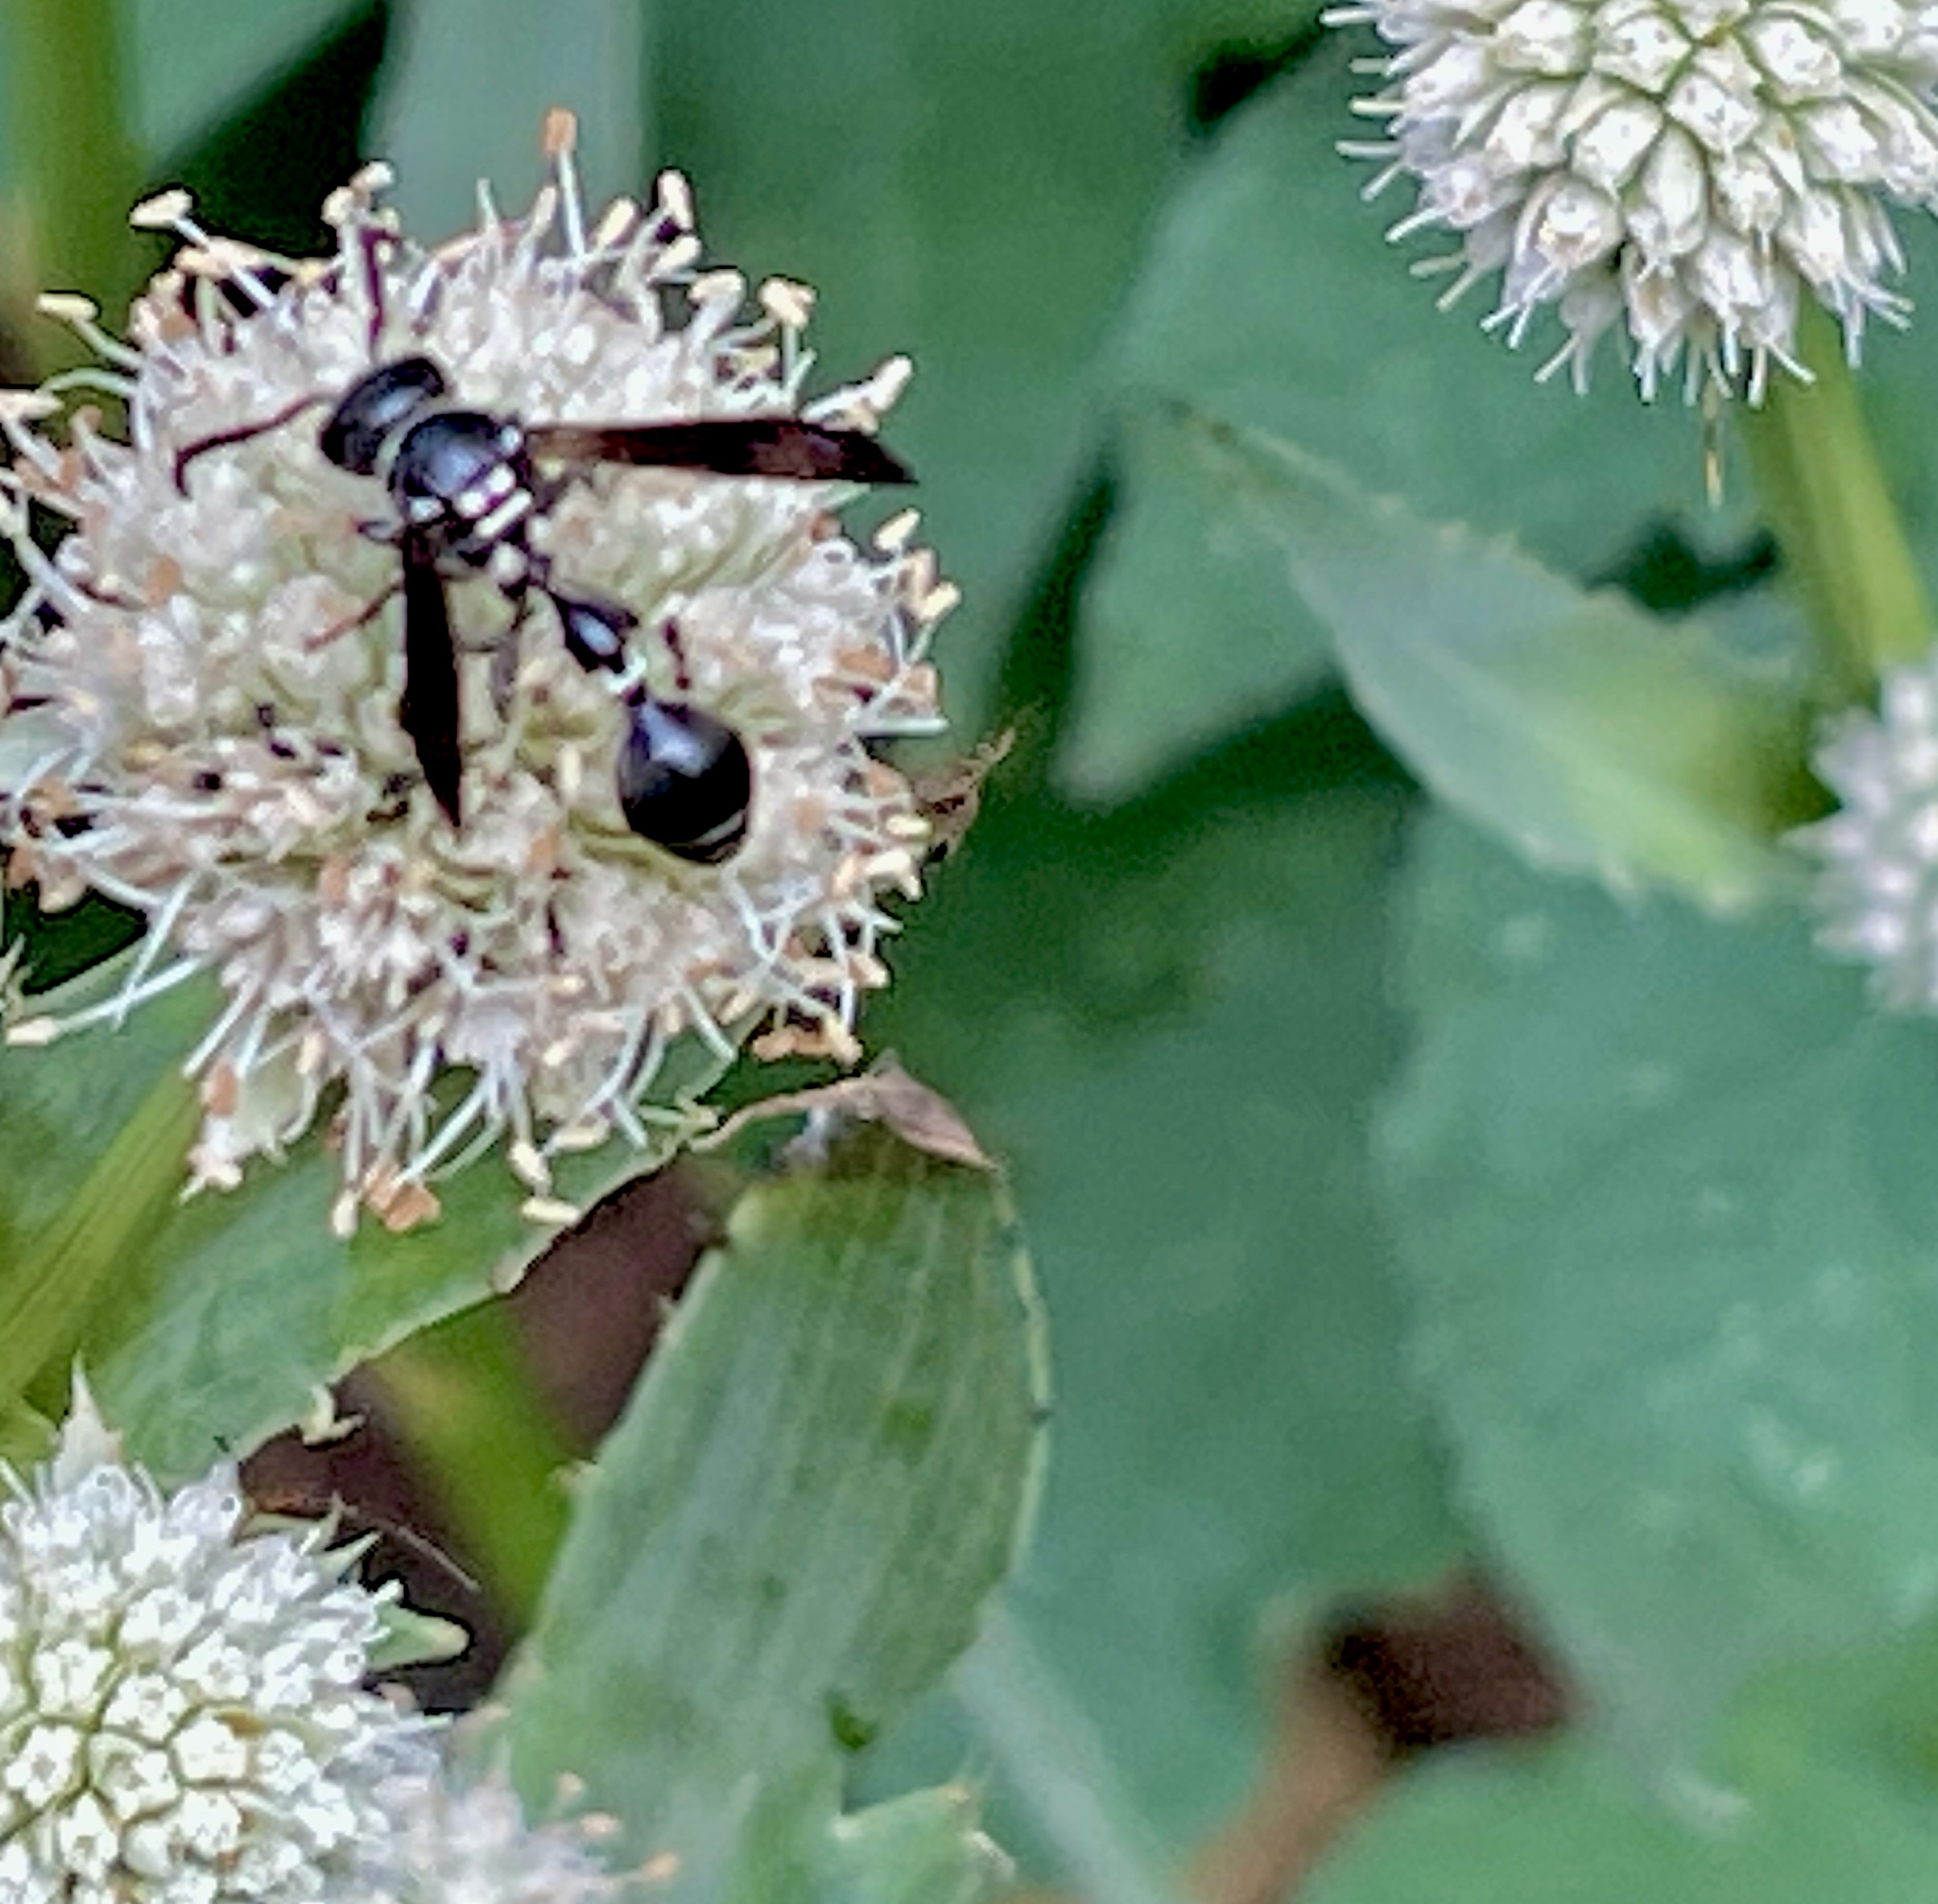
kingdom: Animalia
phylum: Arthropoda
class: Insecta
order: Hymenoptera
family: Eumenidae
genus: Zethus
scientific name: Zethus spinipes
